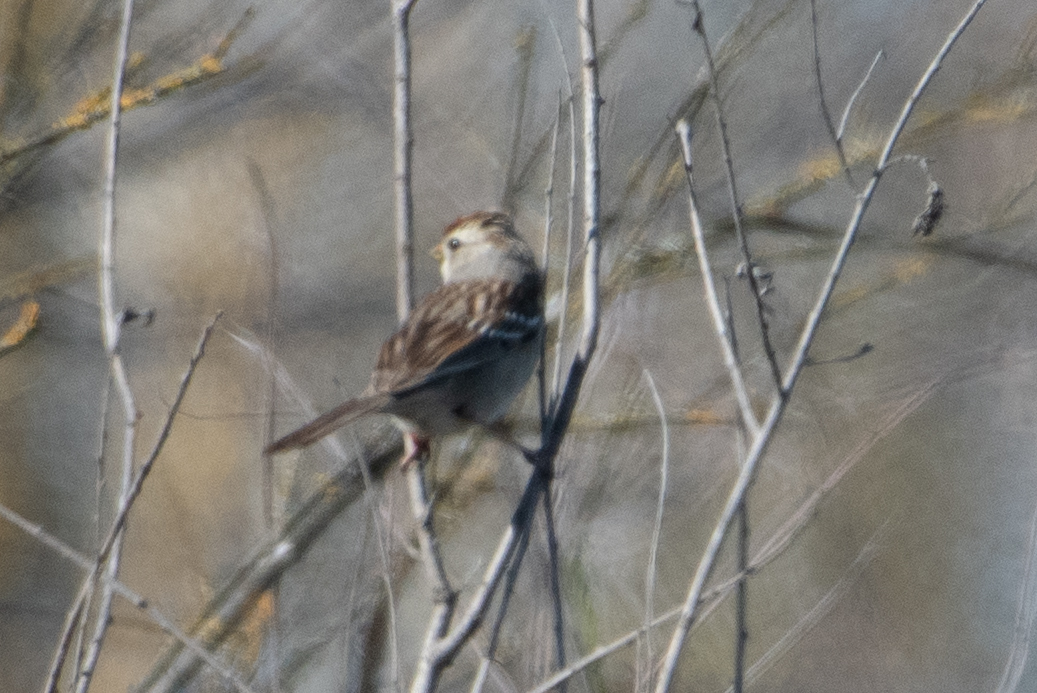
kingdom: Animalia
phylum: Chordata
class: Aves
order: Passeriformes
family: Passerellidae
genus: Zonotrichia
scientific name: Zonotrichia leucophrys
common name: White-crowned sparrow
